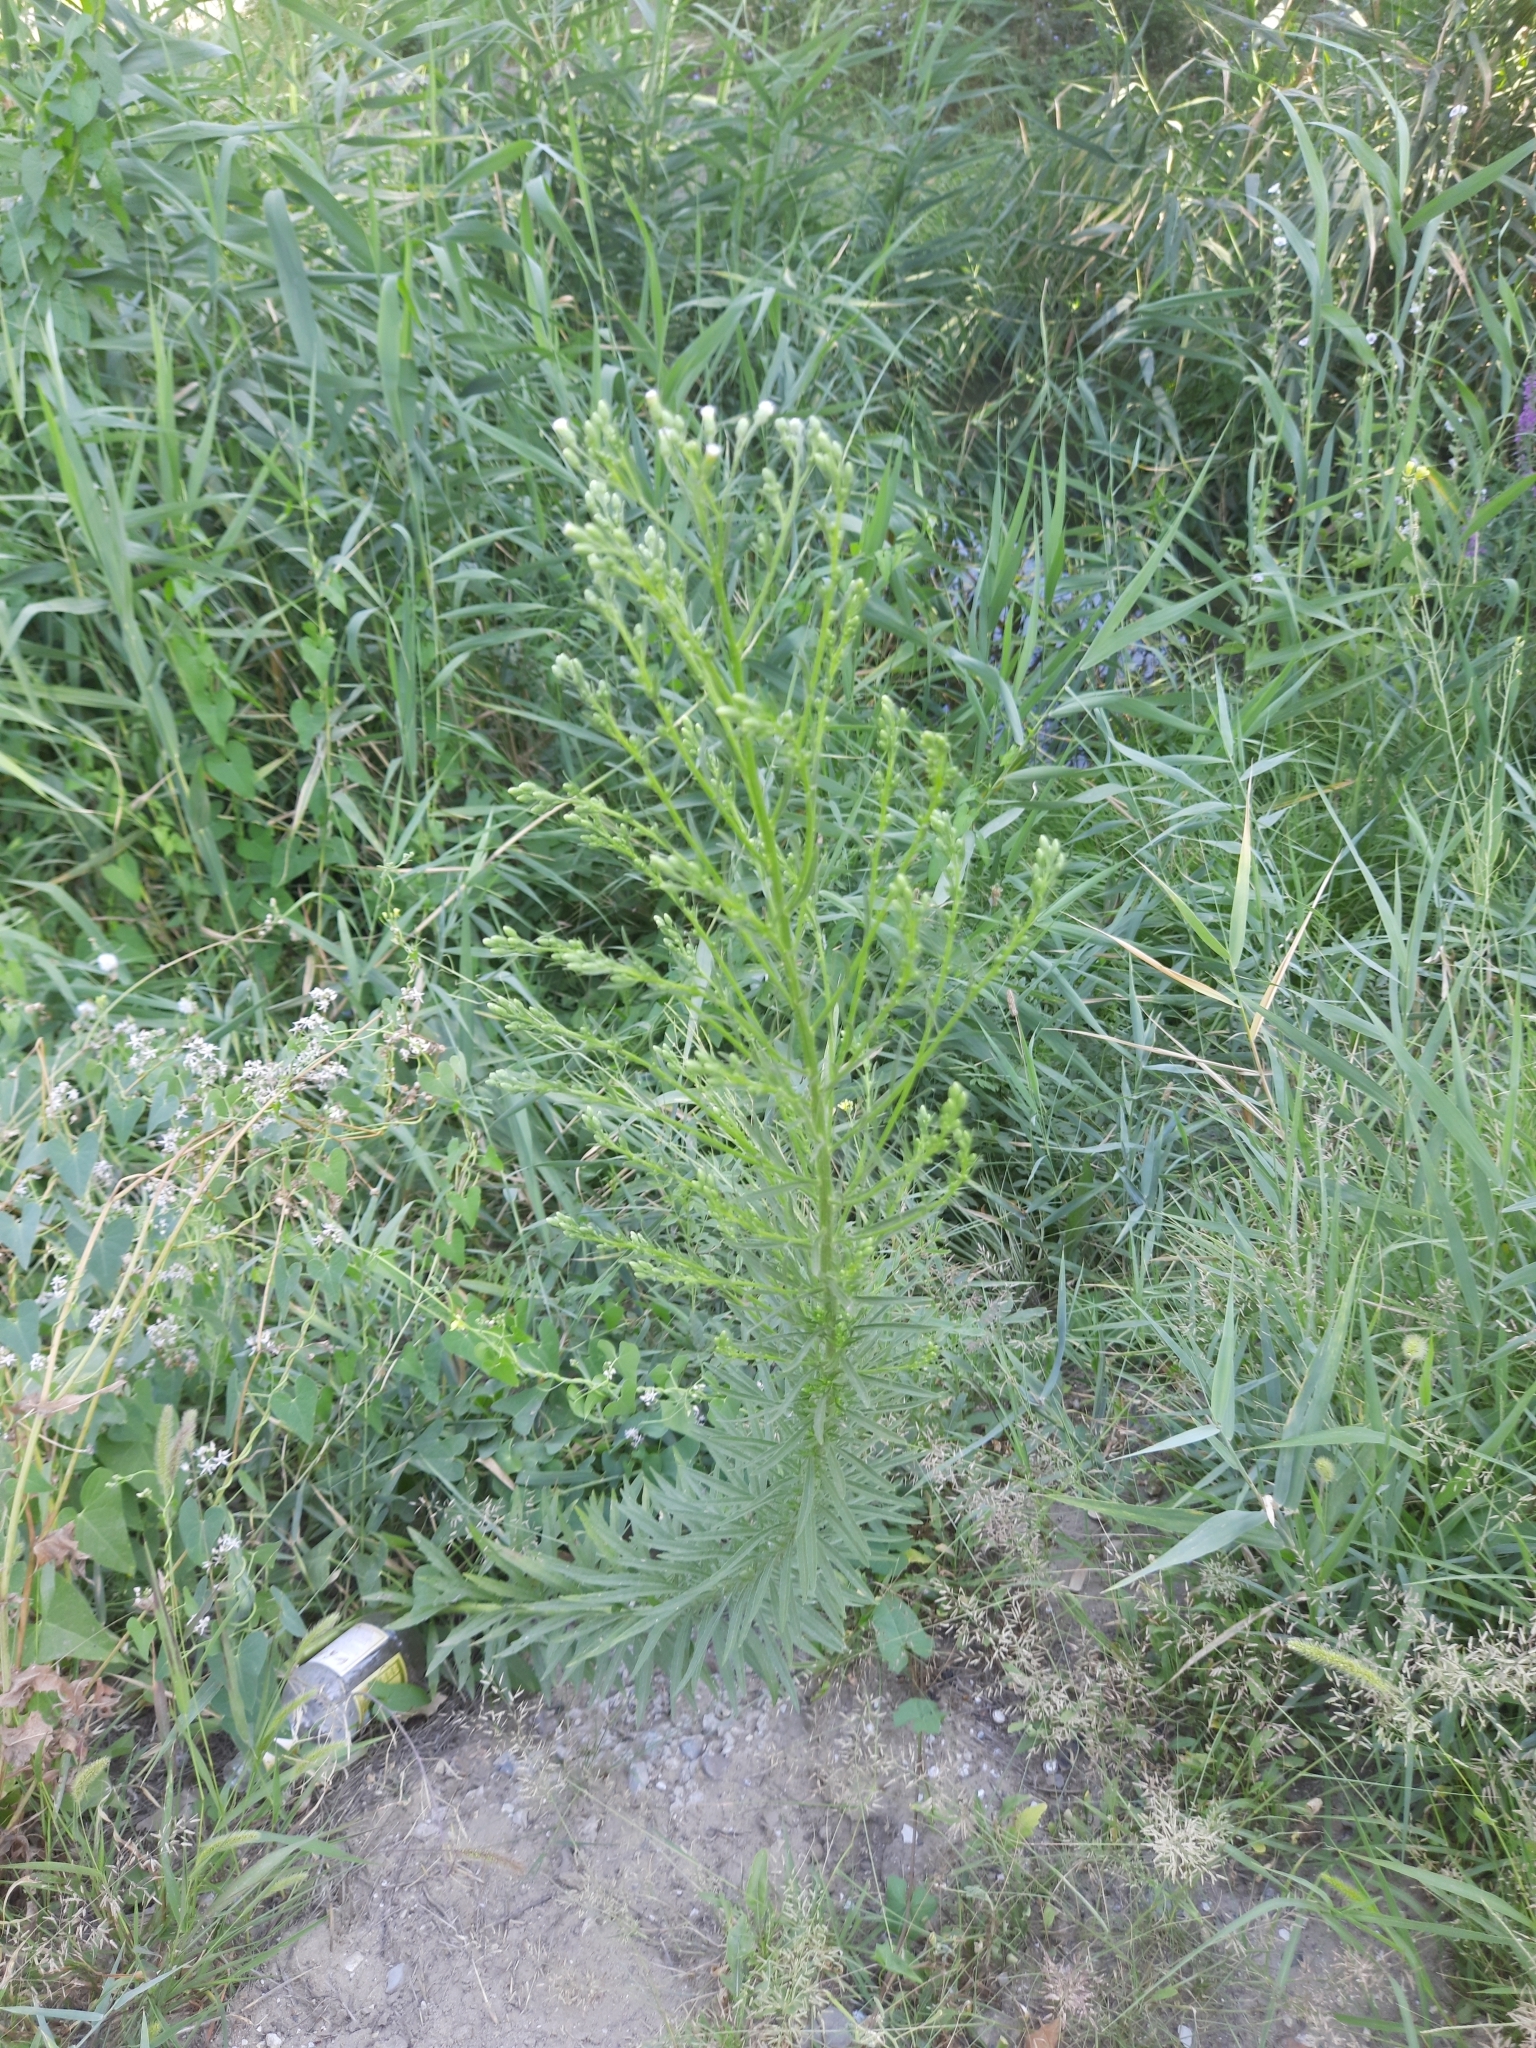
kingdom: Plantae
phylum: Tracheophyta
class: Magnoliopsida
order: Asterales
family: Asteraceae
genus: Erigeron
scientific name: Erigeron canadensis
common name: Canadian fleabane
